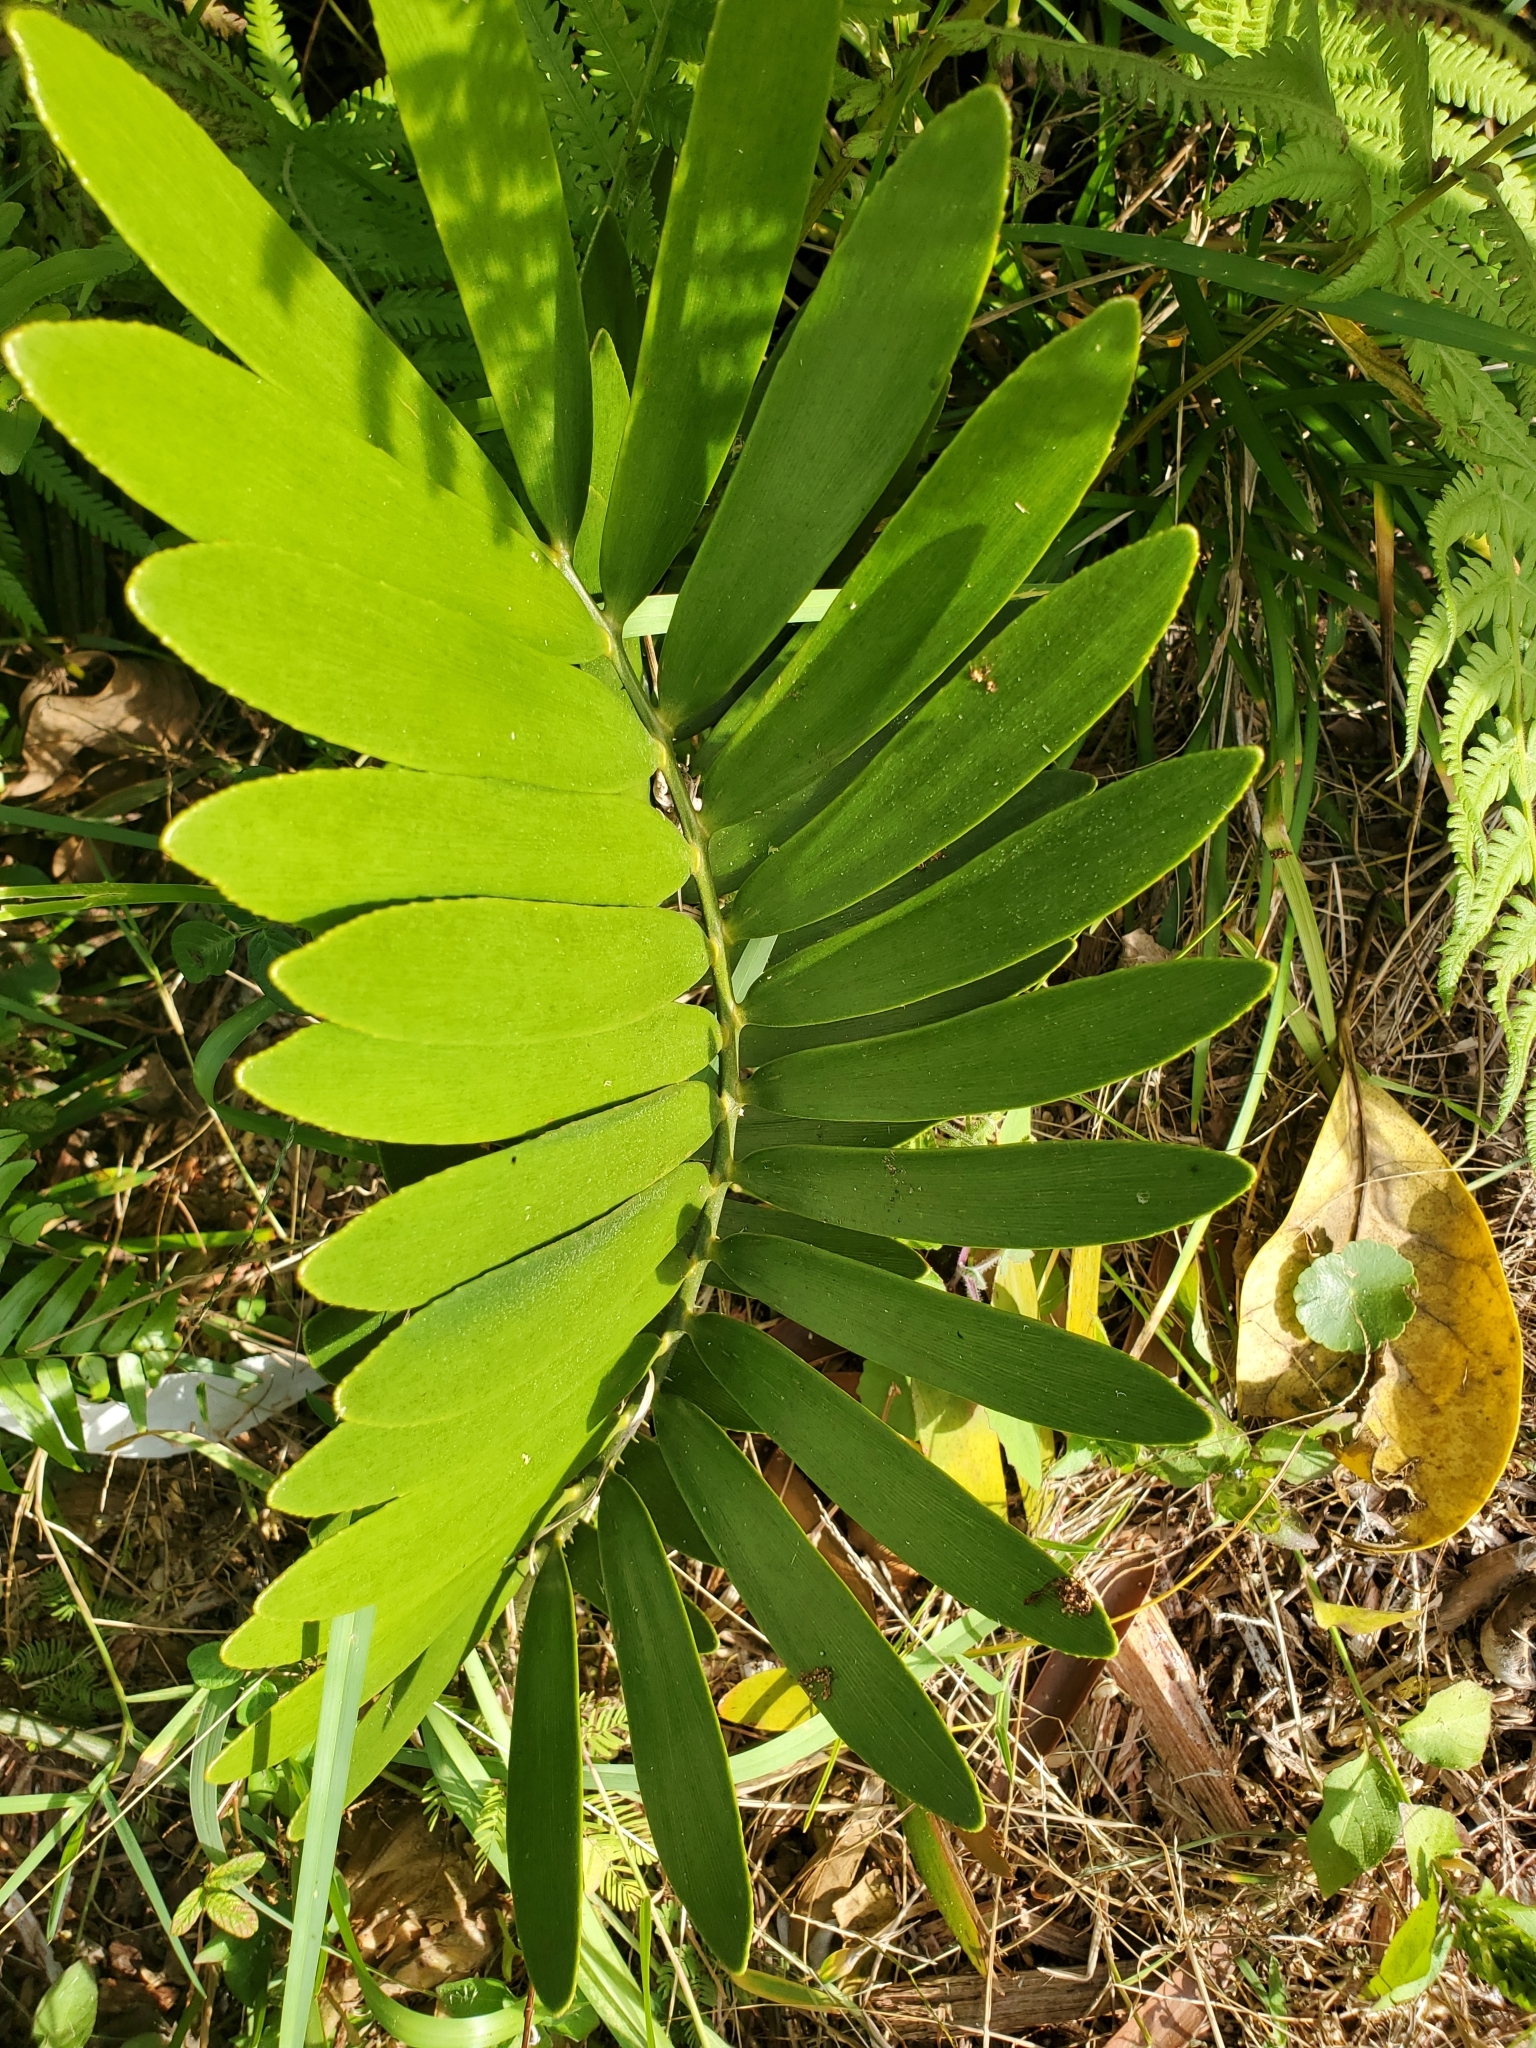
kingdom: Plantae
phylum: Tracheophyta
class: Cycadopsida
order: Cycadales
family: Zamiaceae
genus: Zamia
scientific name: Zamia furfuracea
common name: Cardboard palm
